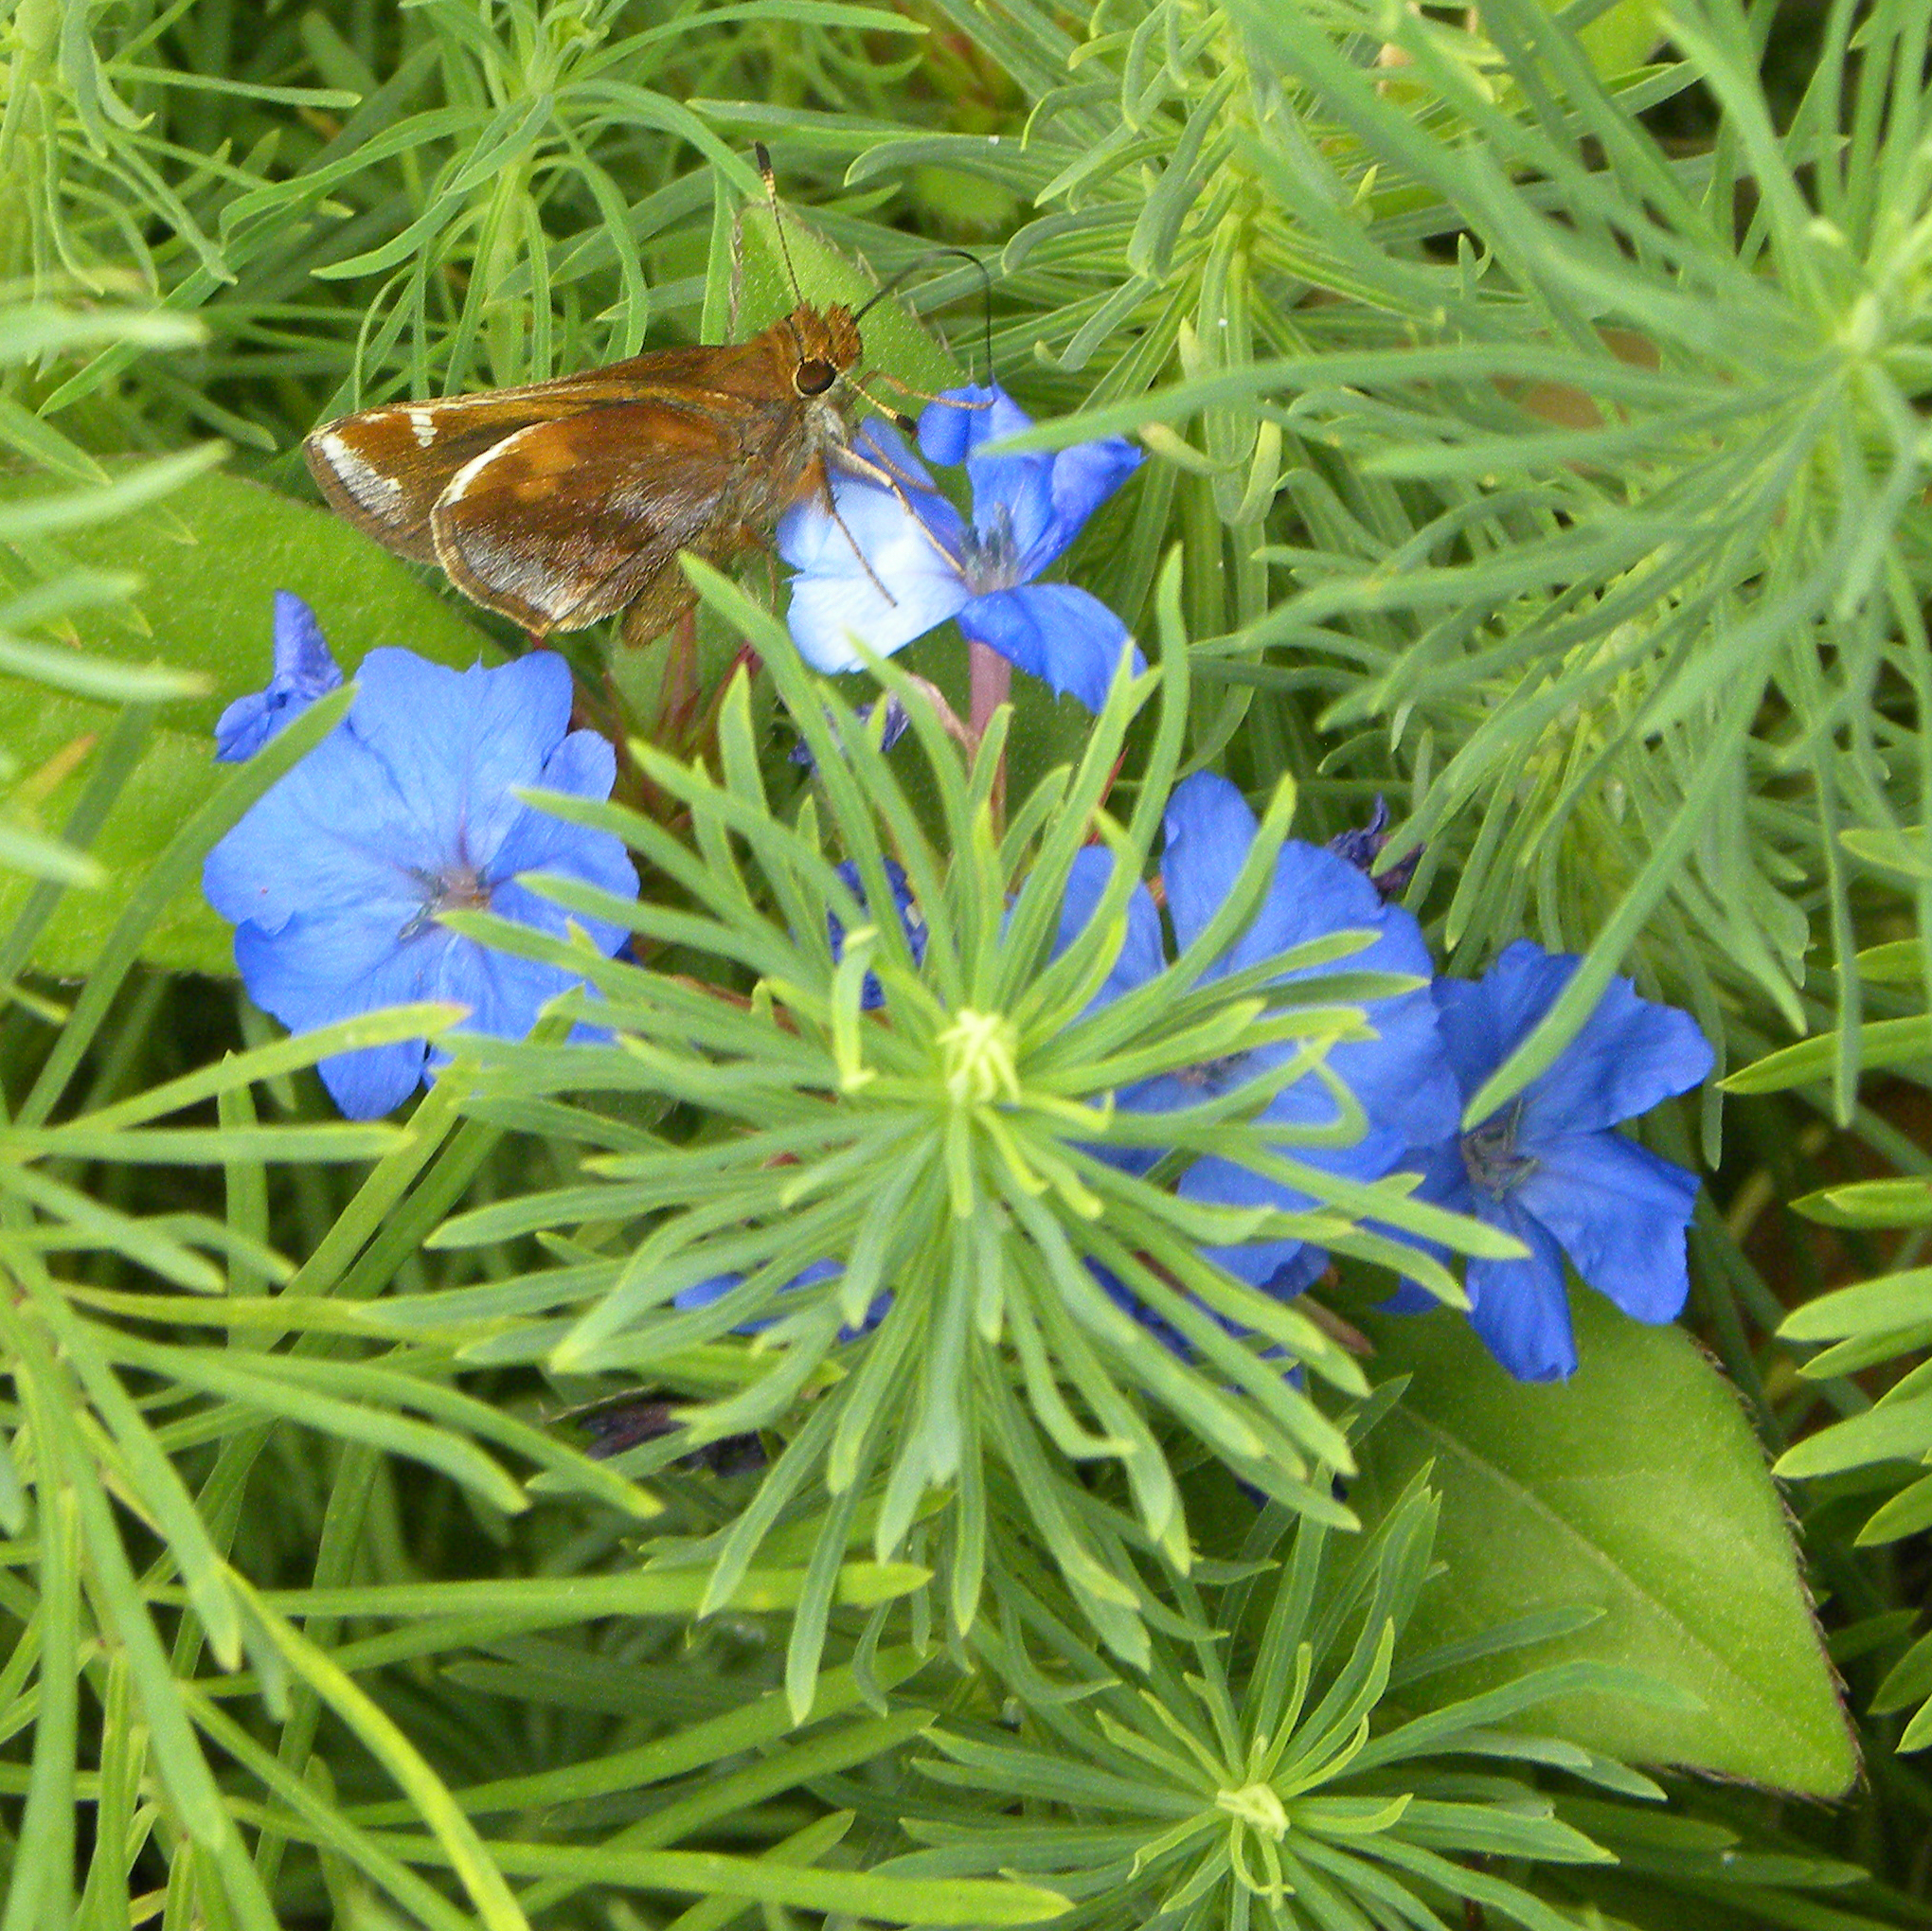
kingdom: Animalia
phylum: Arthropoda
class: Insecta
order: Lepidoptera
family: Hesperiidae
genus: Lon
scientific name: Lon zabulon
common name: Zabulon skipper
